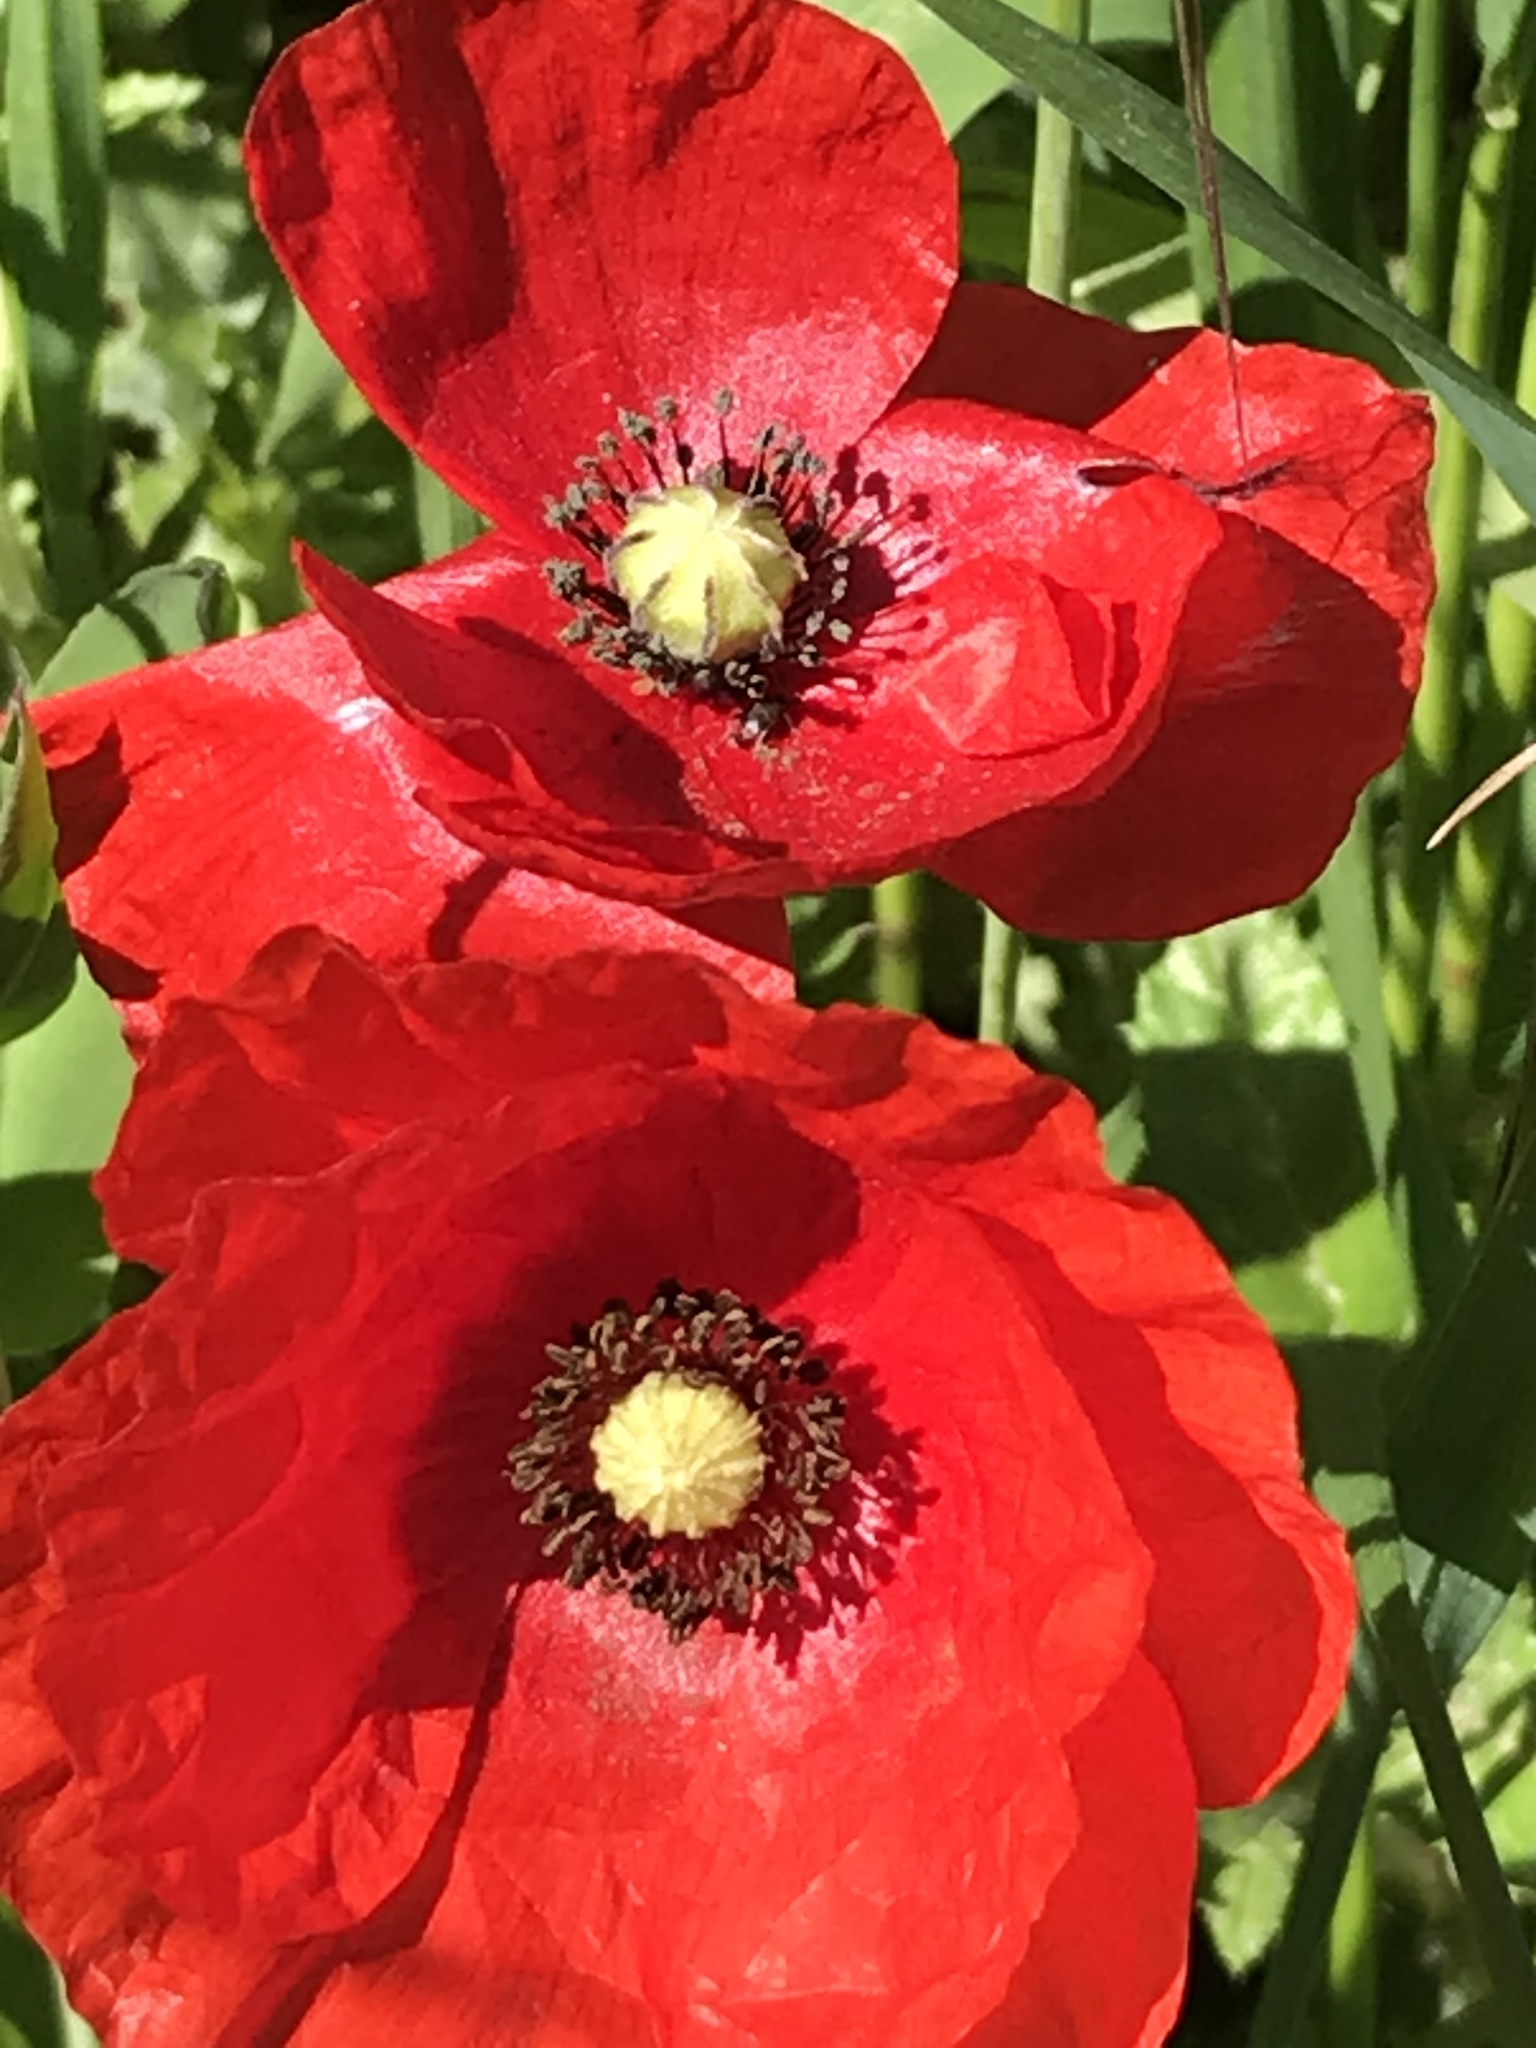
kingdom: Plantae
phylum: Tracheophyta
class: Magnoliopsida
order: Ranunculales
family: Papaveraceae
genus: Papaver
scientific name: Papaver rhoeas
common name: Corn poppy
